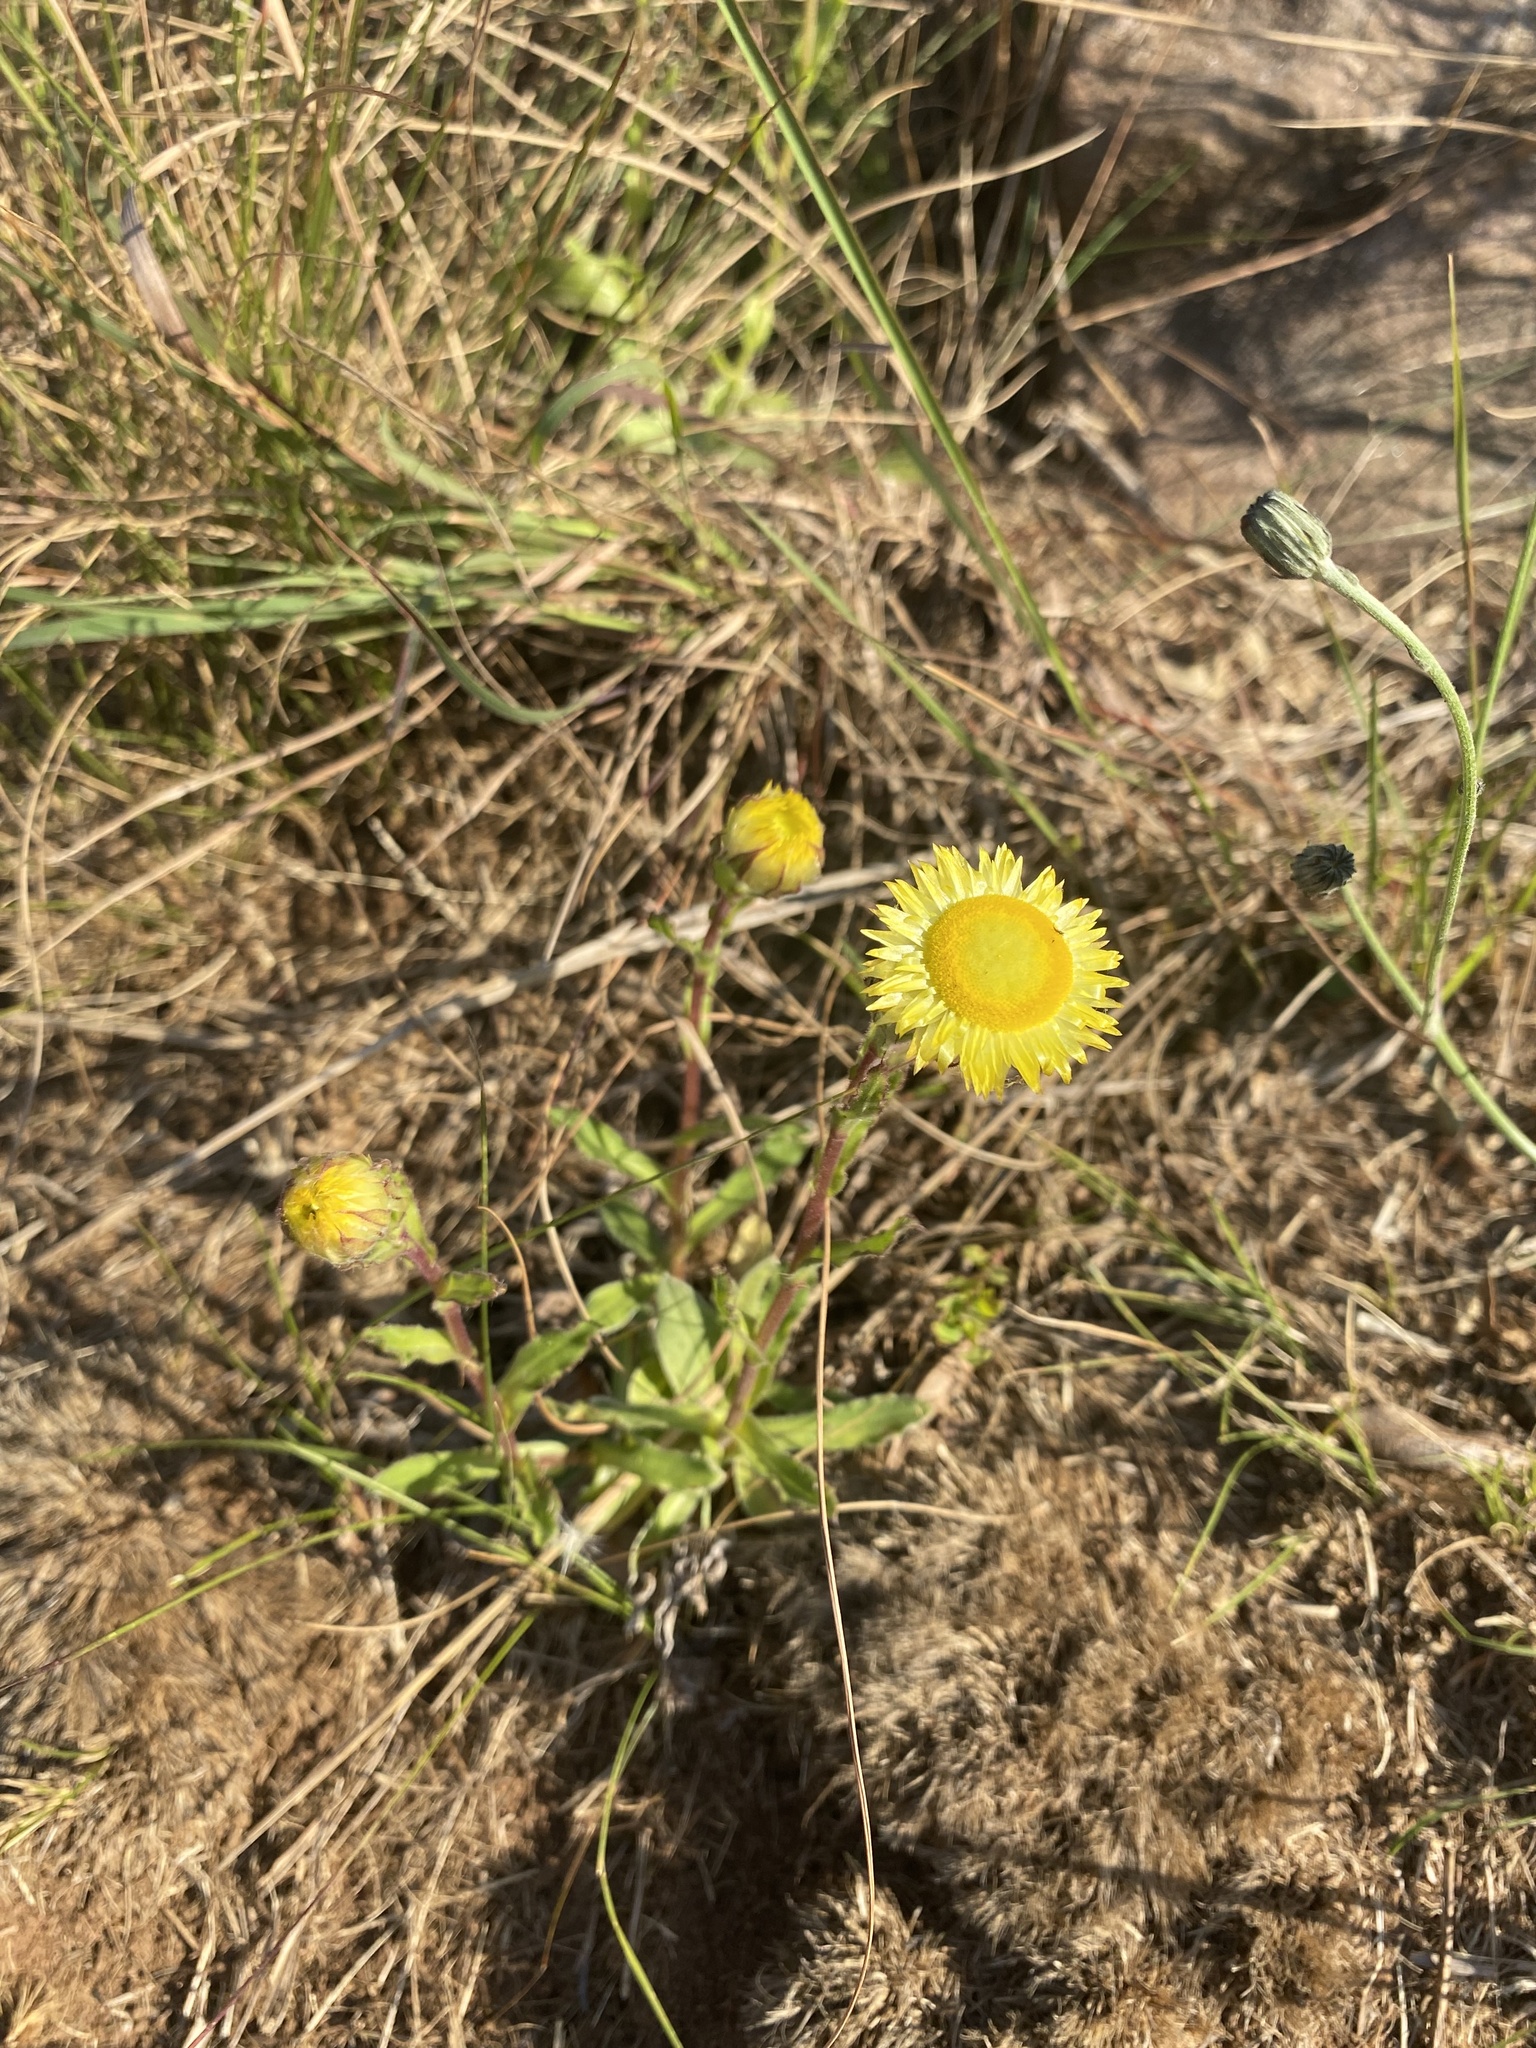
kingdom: Plantae
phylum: Tracheophyta
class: Magnoliopsida
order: Asterales
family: Asteraceae
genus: Helichrysum
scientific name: Helichrysum aureum
